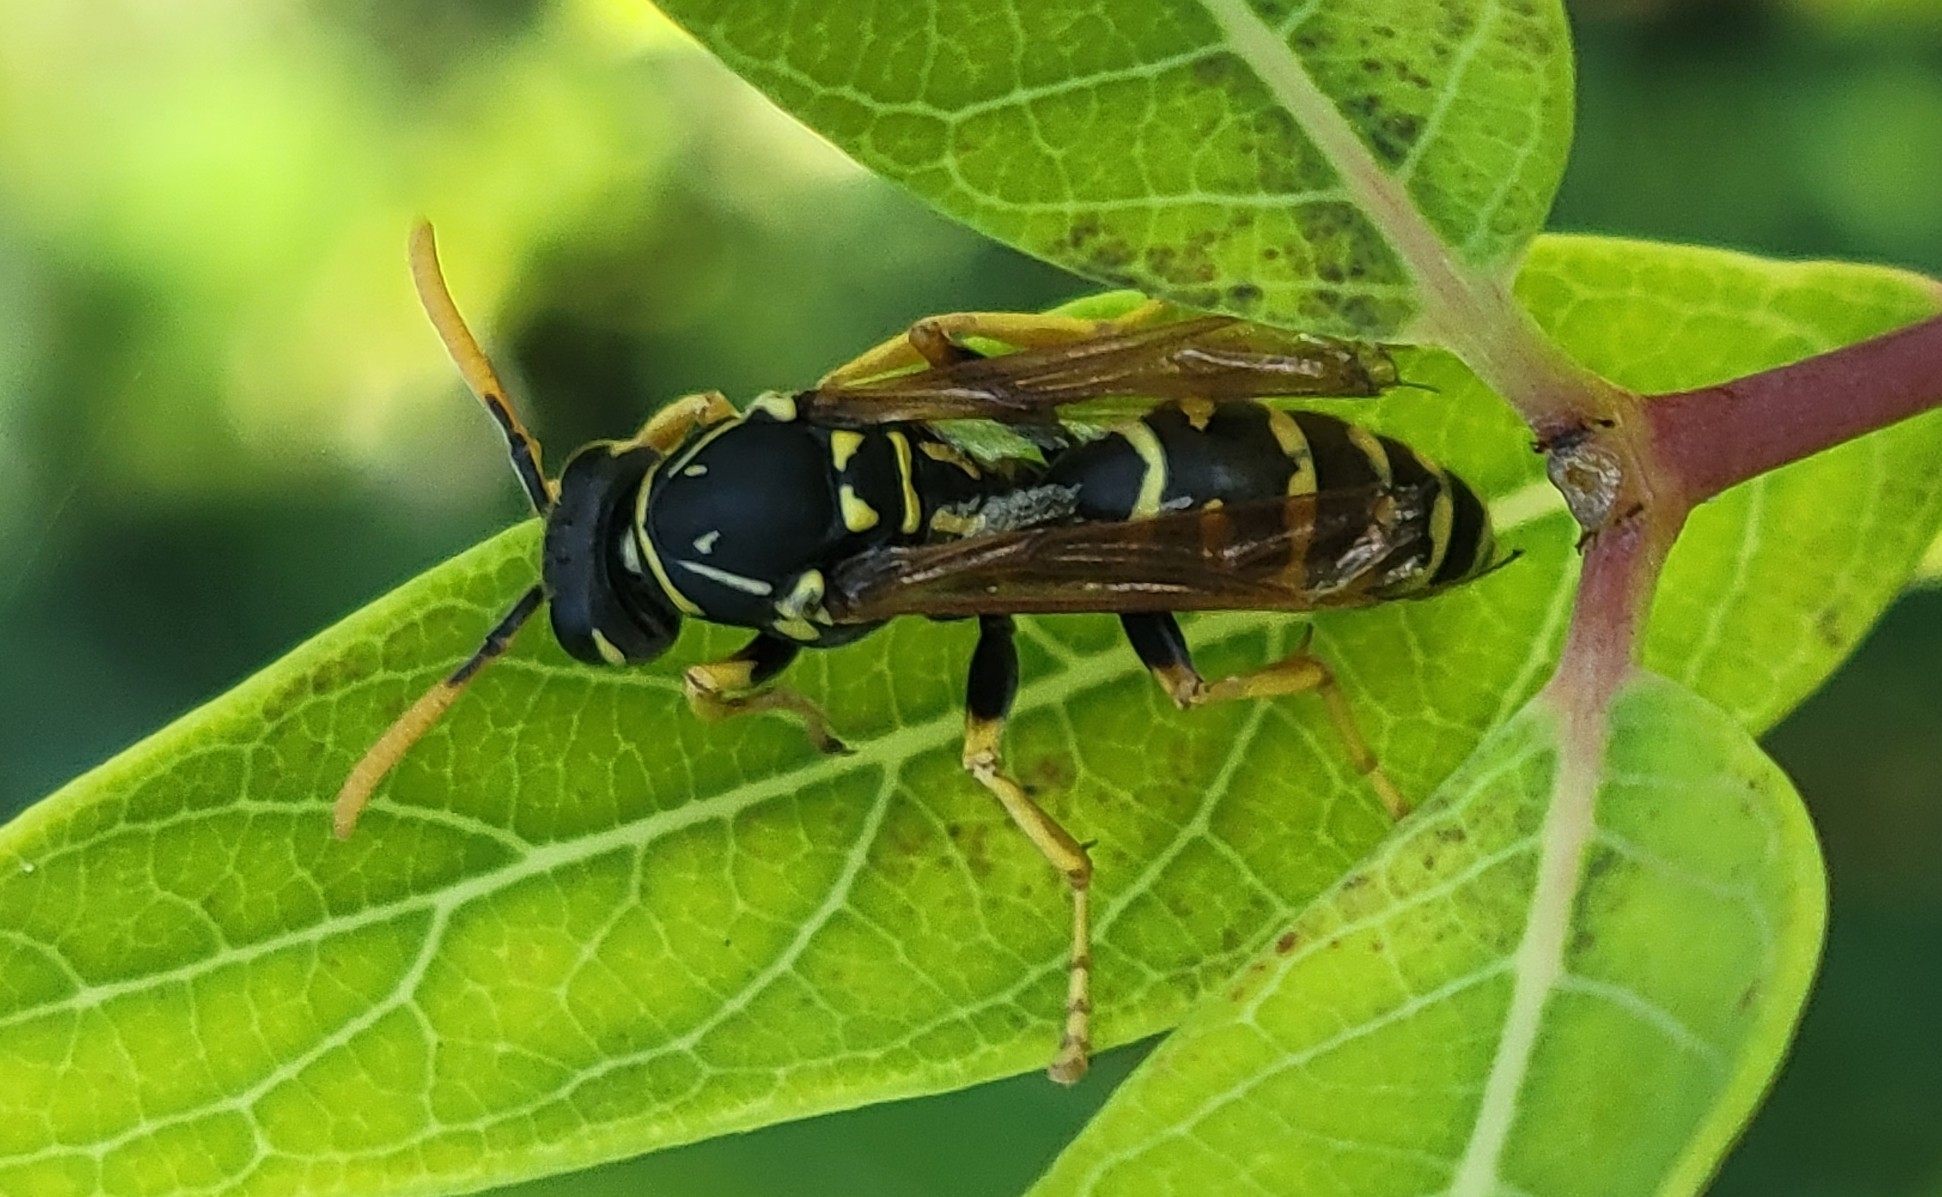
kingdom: Animalia
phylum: Arthropoda
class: Insecta
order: Hymenoptera
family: Eumenidae
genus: Polistes
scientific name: Polistes dominula
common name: Paper wasp
